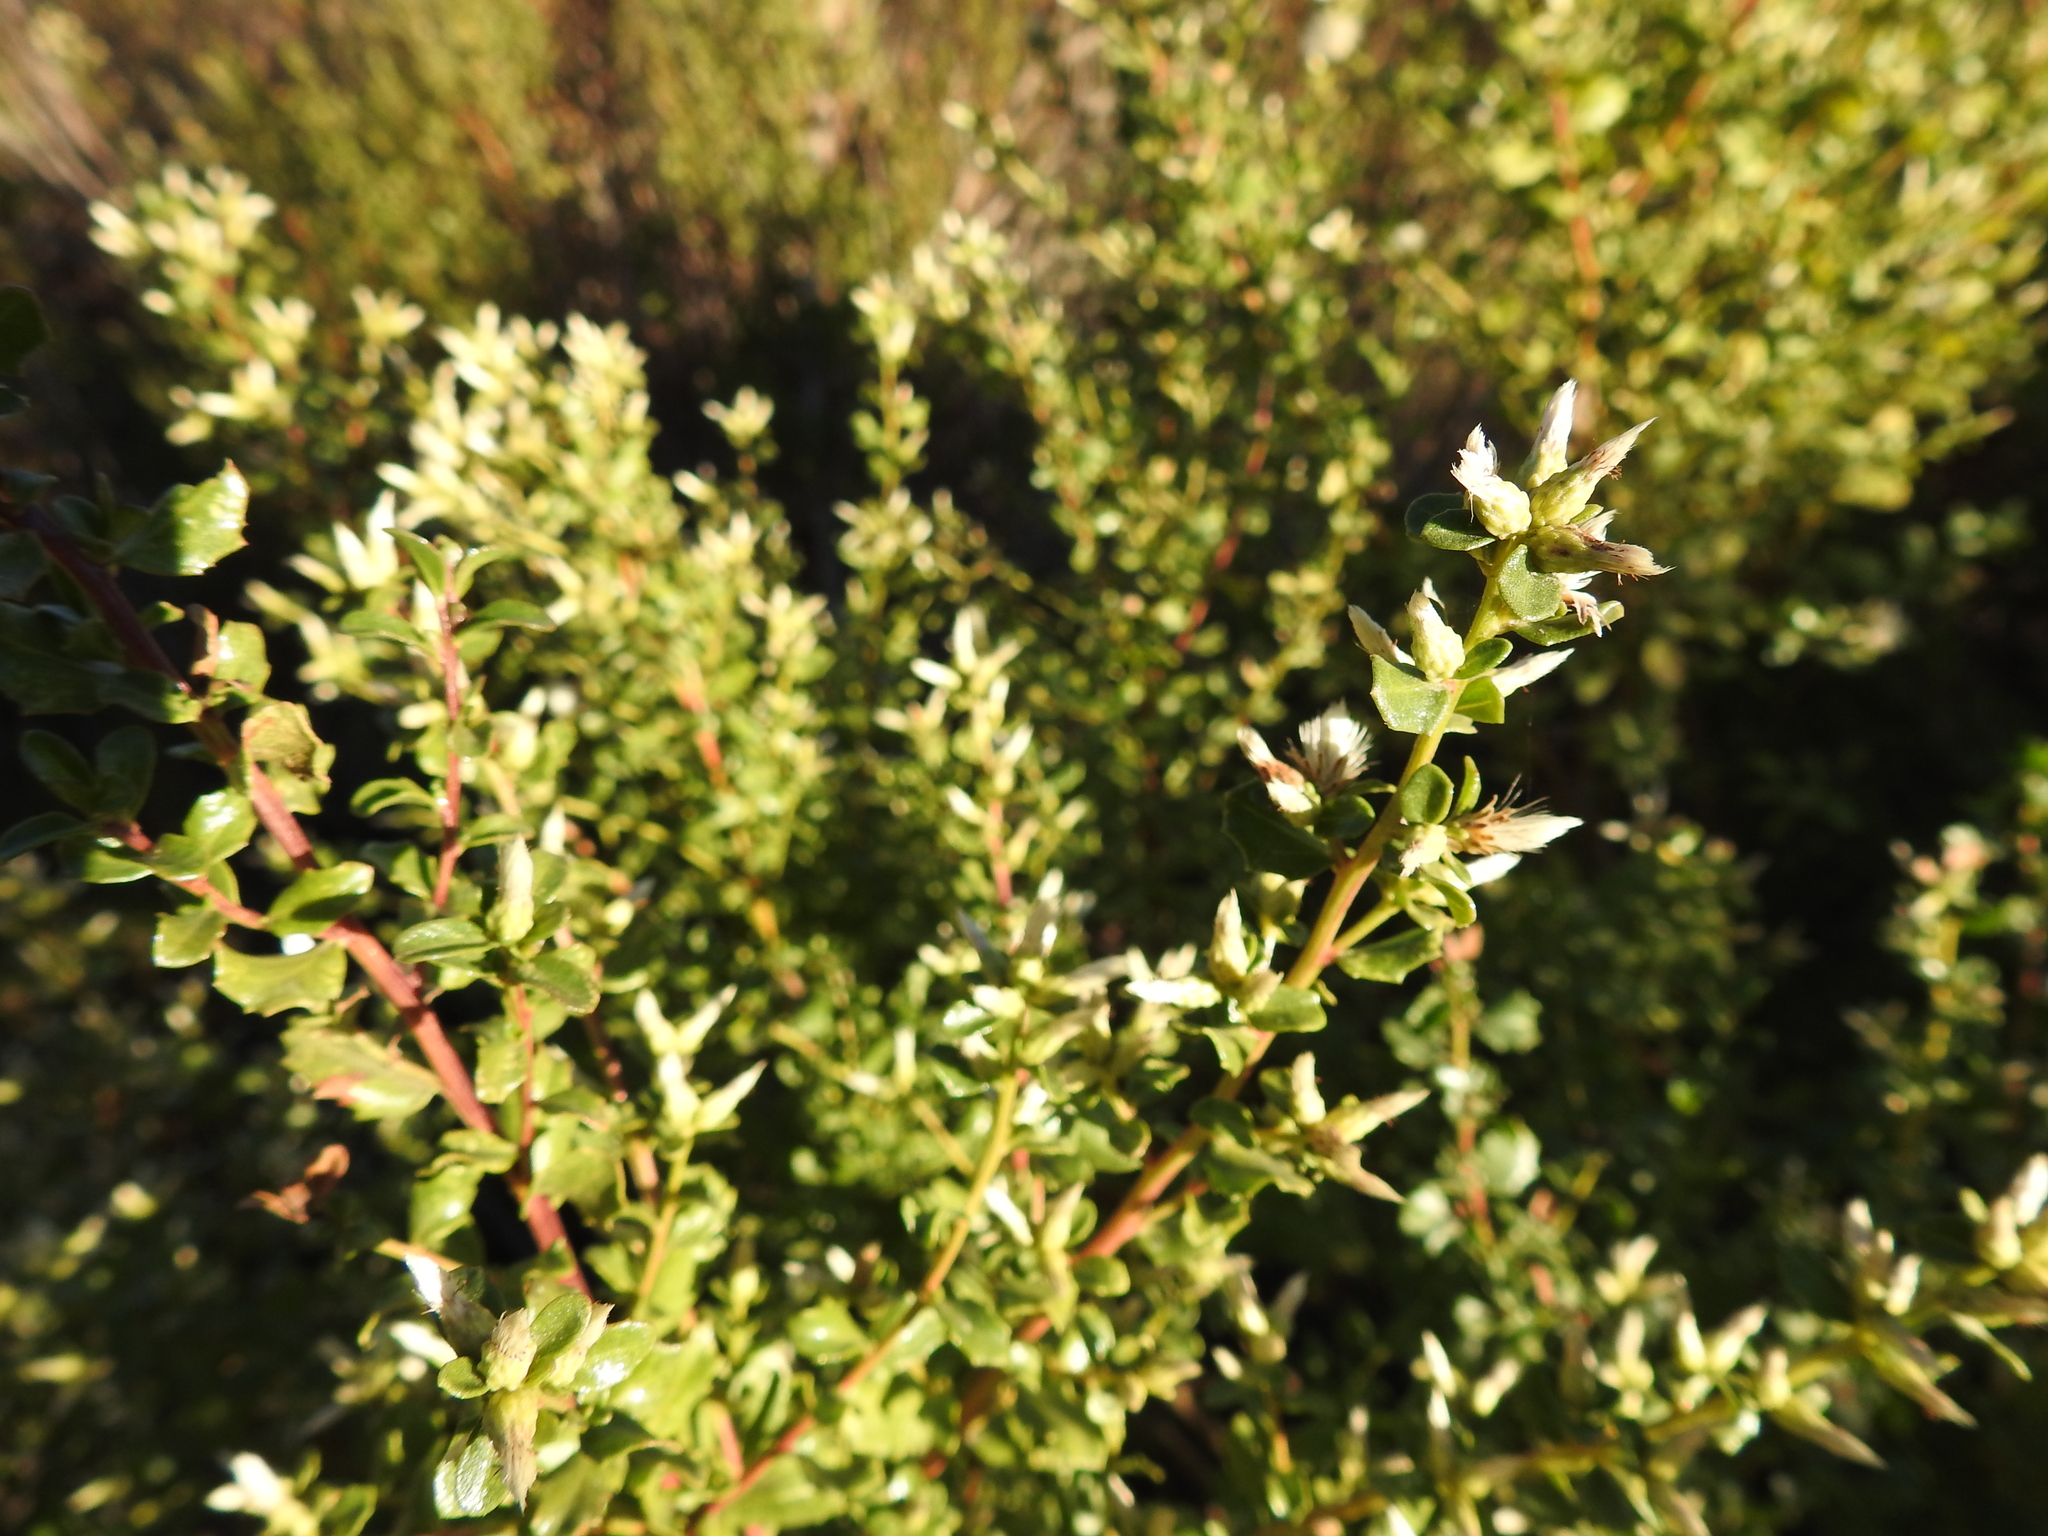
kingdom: Plantae
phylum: Tracheophyta
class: Magnoliopsida
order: Asterales
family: Asteraceae
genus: Baccharis
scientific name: Baccharis pilularis
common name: Coyotebrush
